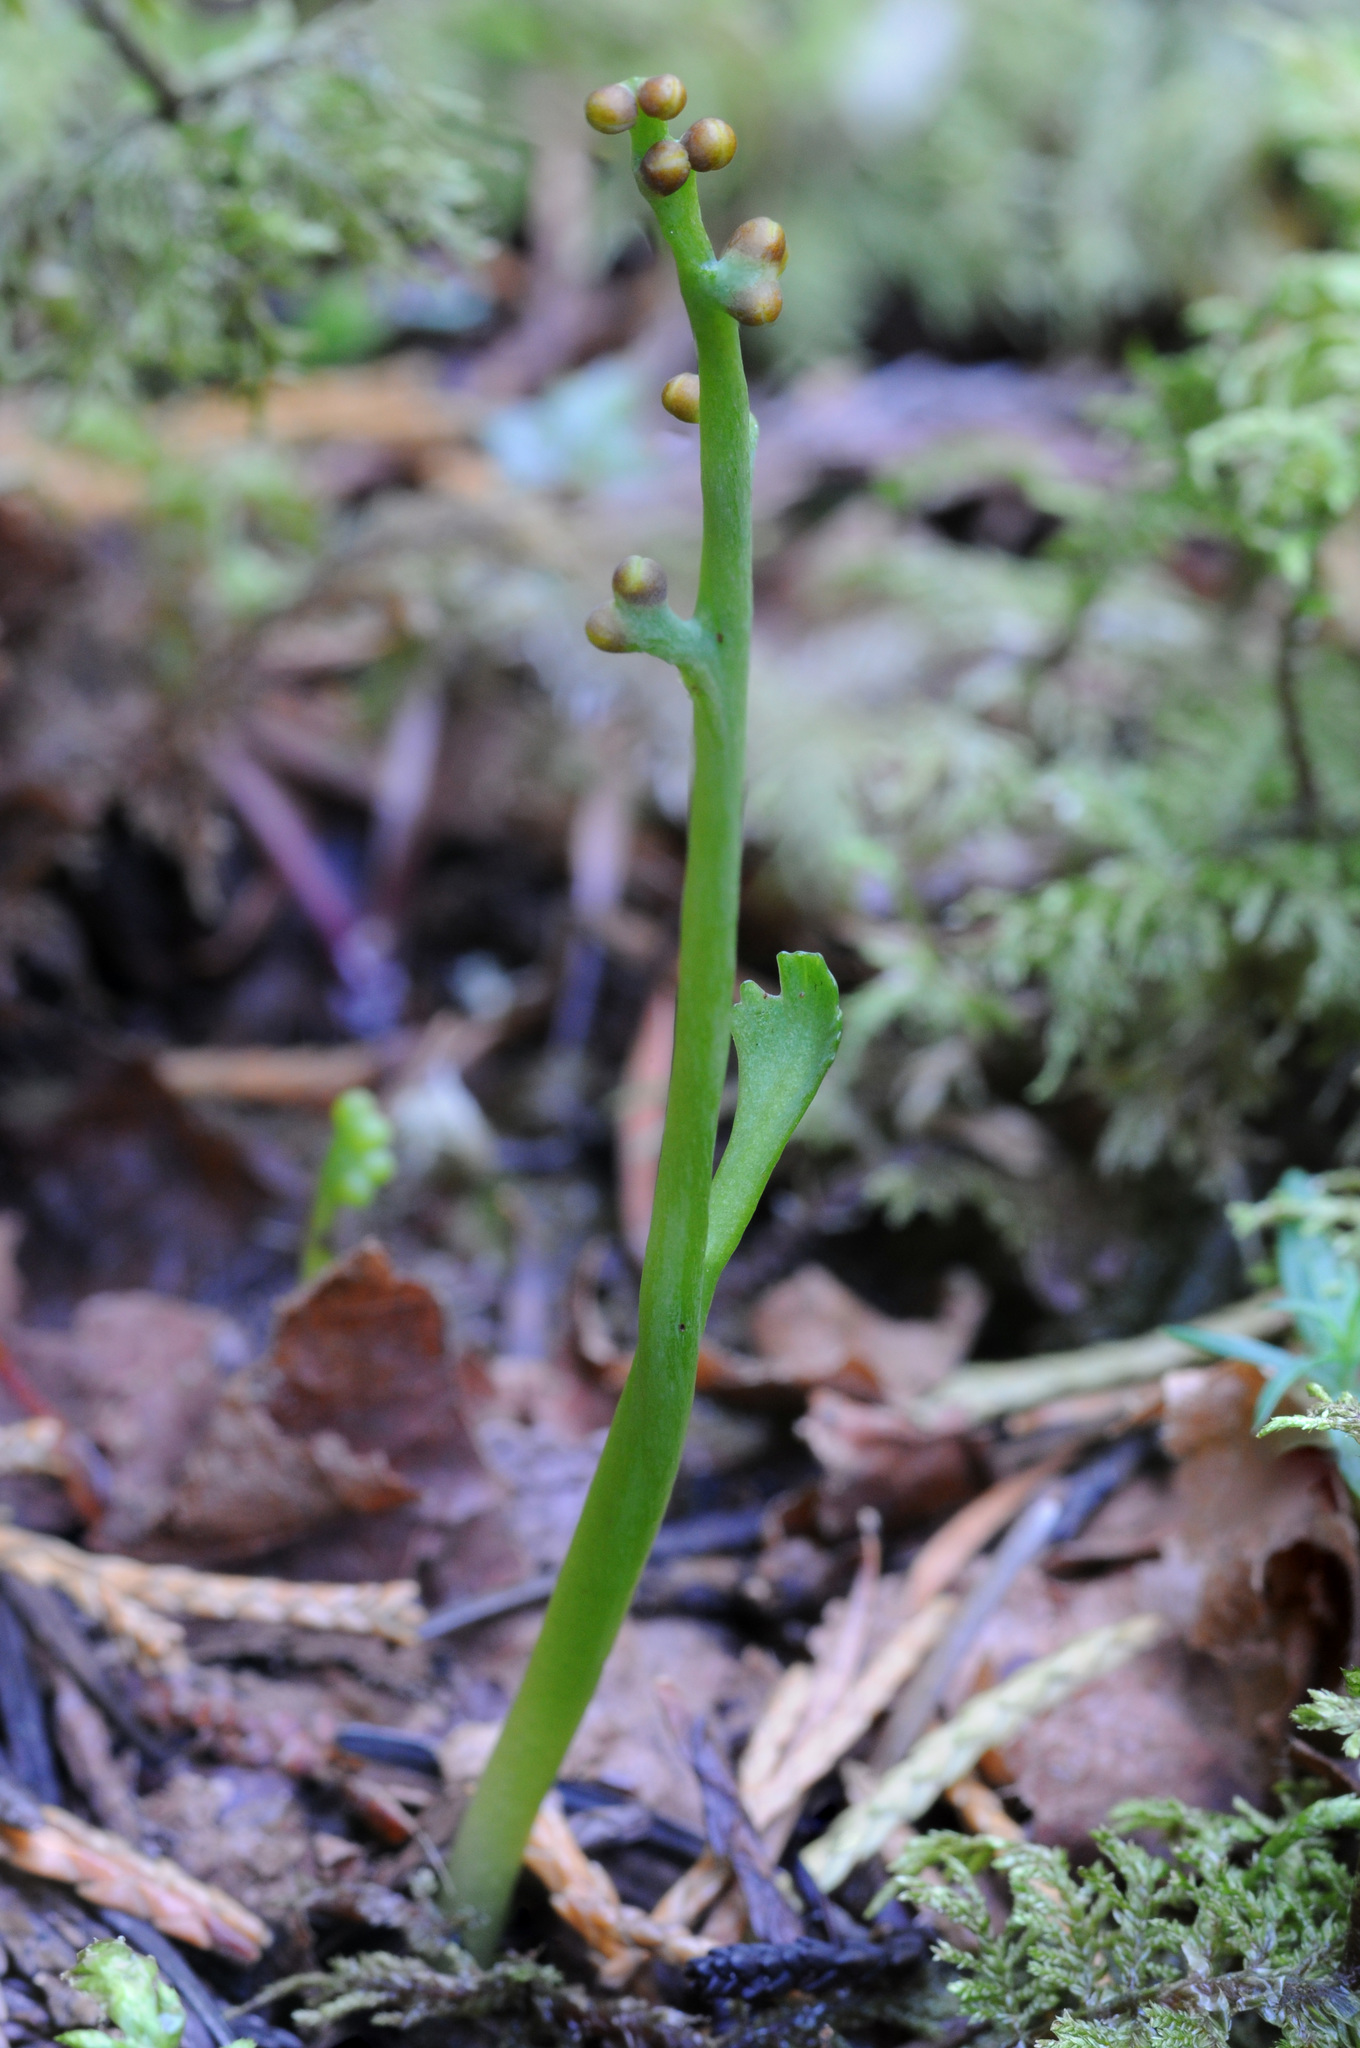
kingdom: Plantae
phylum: Tracheophyta
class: Polypodiopsida
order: Ophioglossales
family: Ophioglossaceae
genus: Botrychium
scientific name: Botrychium montanum
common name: Mountain moonwort
